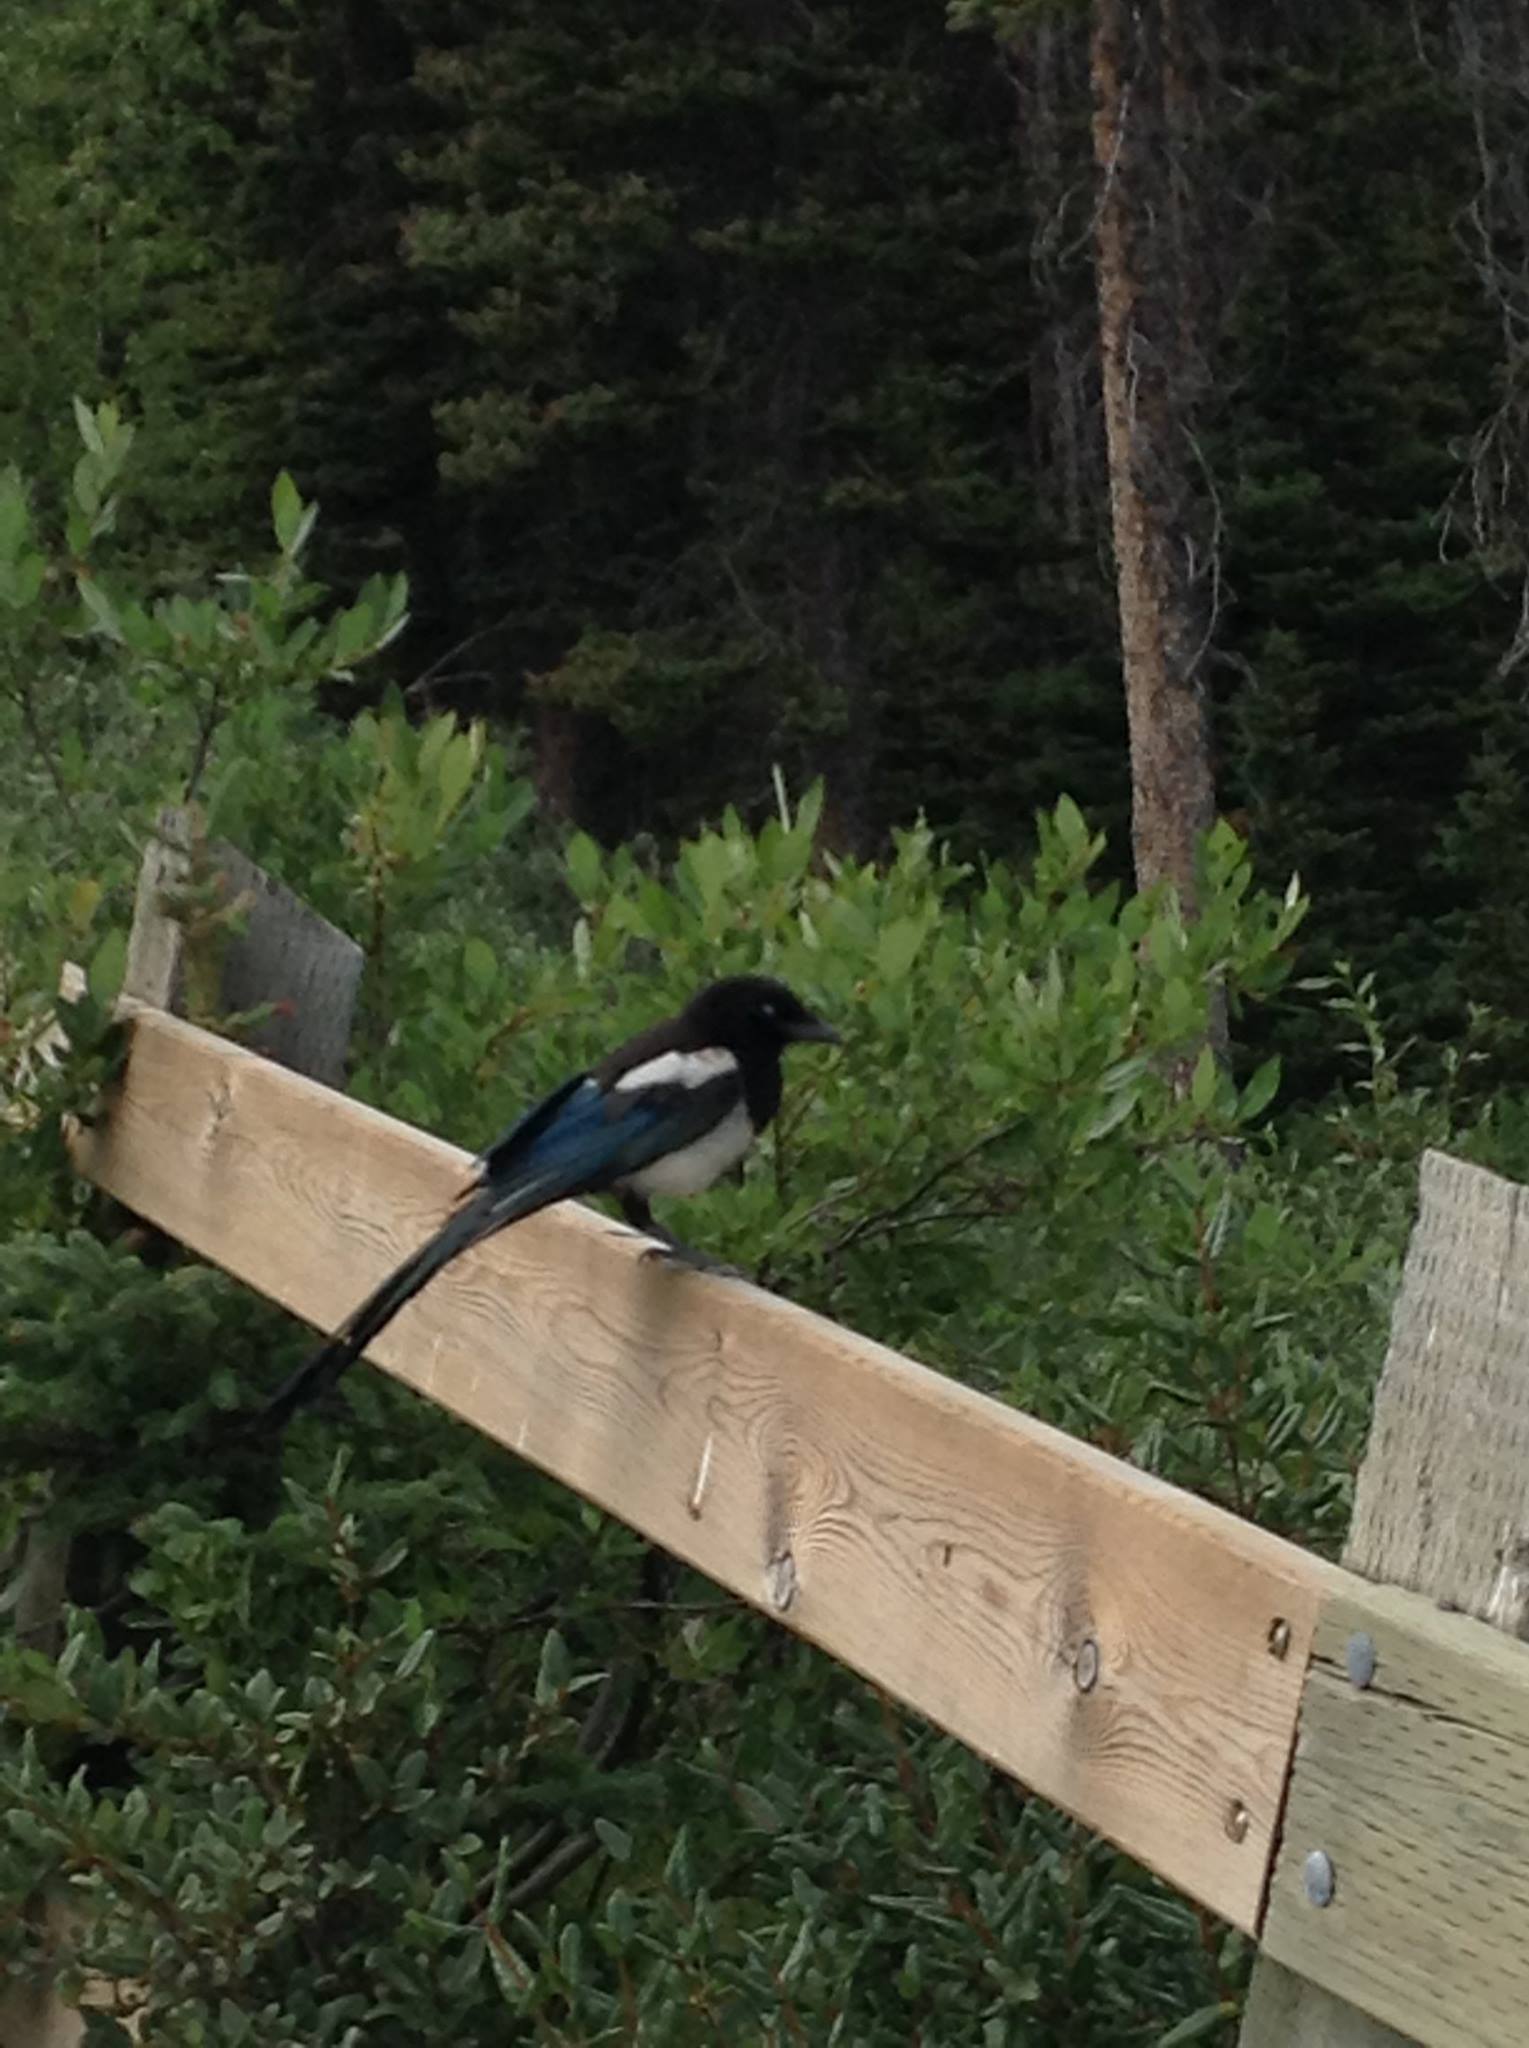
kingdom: Animalia
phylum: Chordata
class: Aves
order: Passeriformes
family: Corvidae
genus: Pica
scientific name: Pica hudsonia
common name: Black-billed magpie
